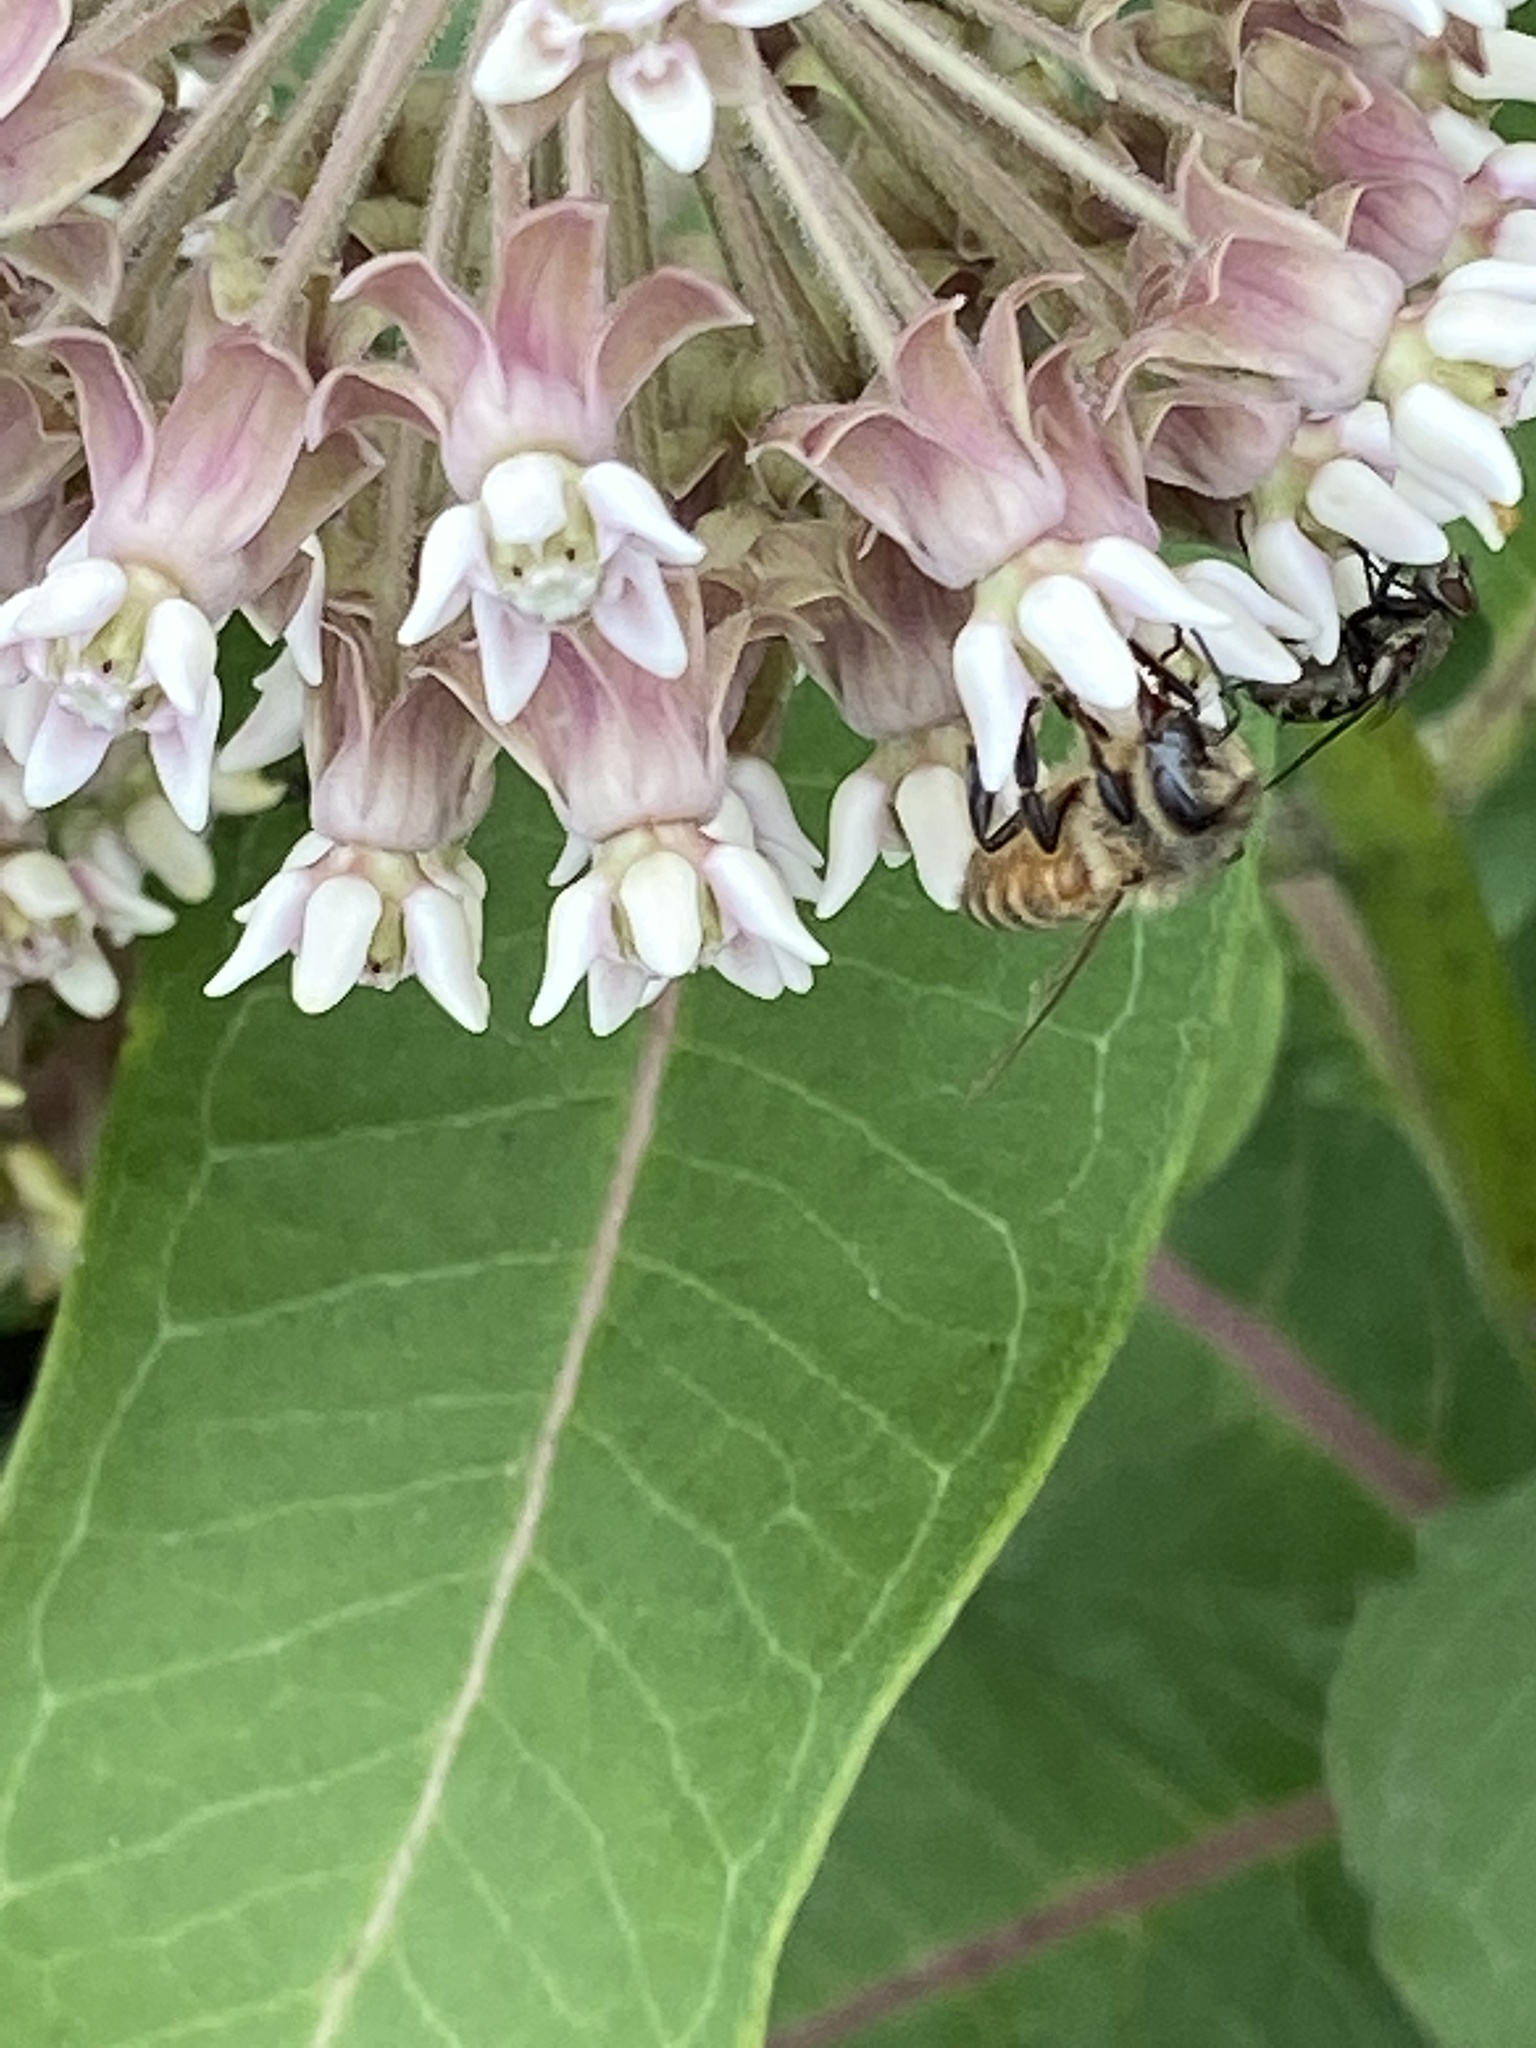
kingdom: Animalia
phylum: Arthropoda
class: Insecta
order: Hymenoptera
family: Apidae
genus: Apis
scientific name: Apis mellifera
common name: Honey bee
